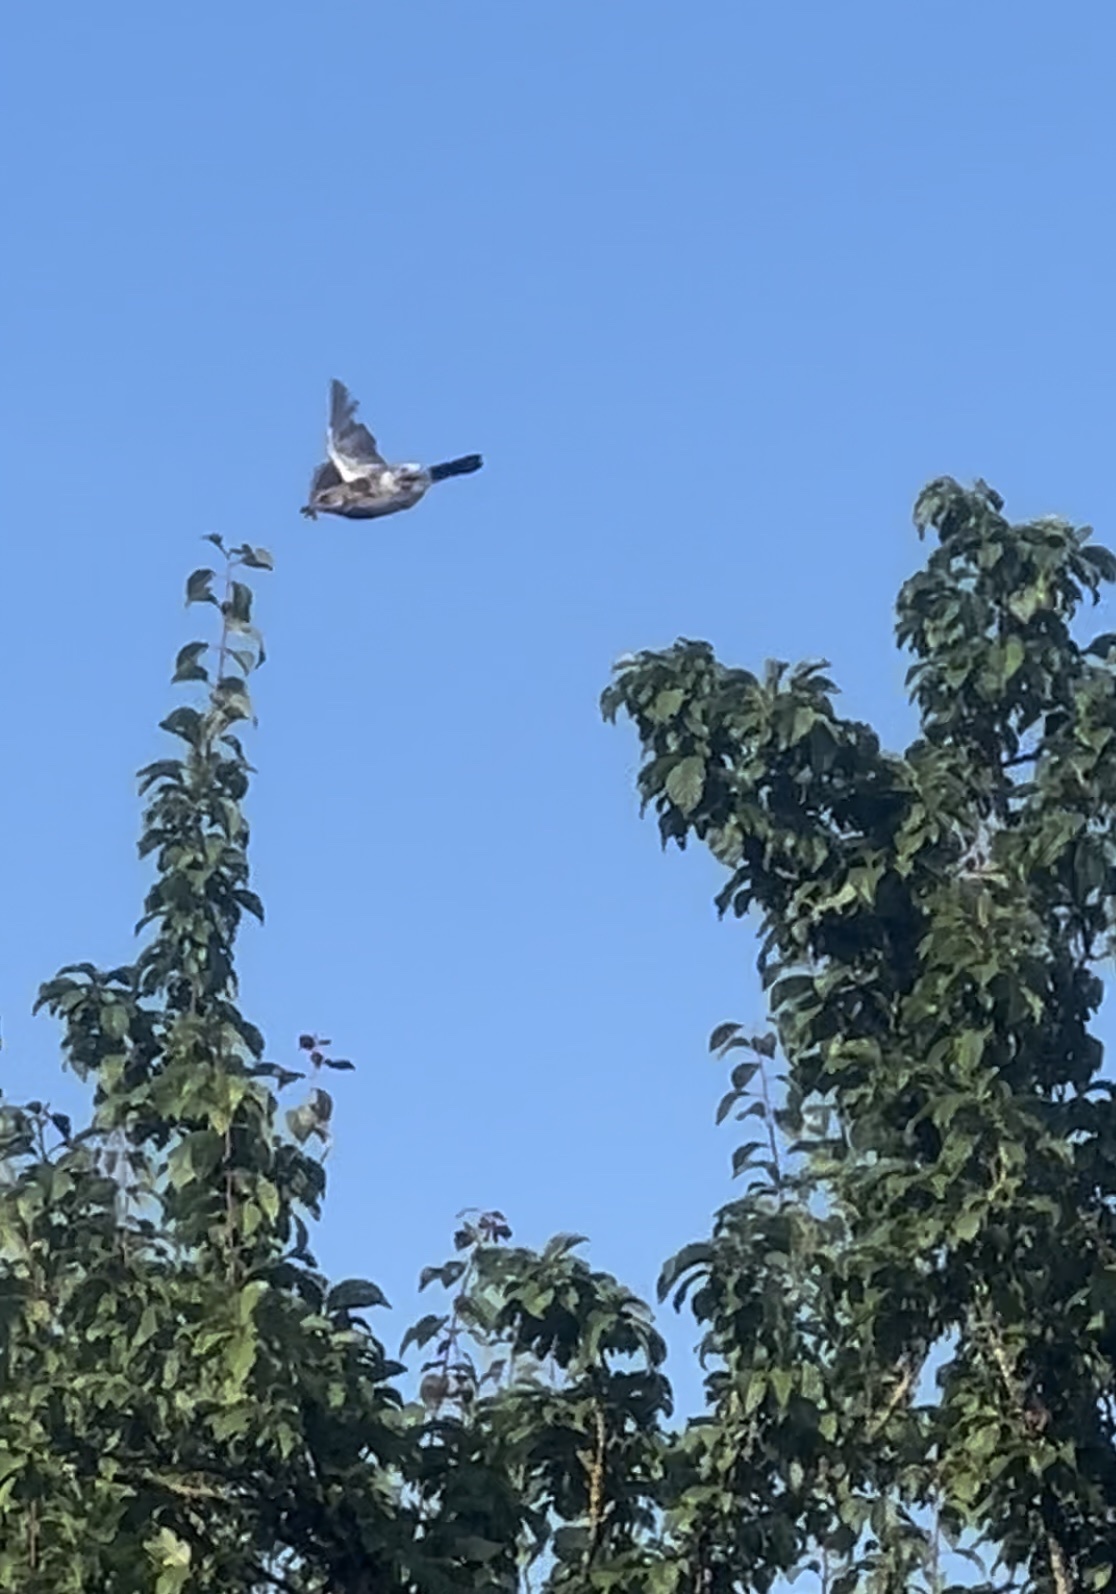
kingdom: Animalia
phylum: Chordata
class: Aves
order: Passeriformes
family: Turdidae
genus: Turdus
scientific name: Turdus pilaris
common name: Fieldfare
